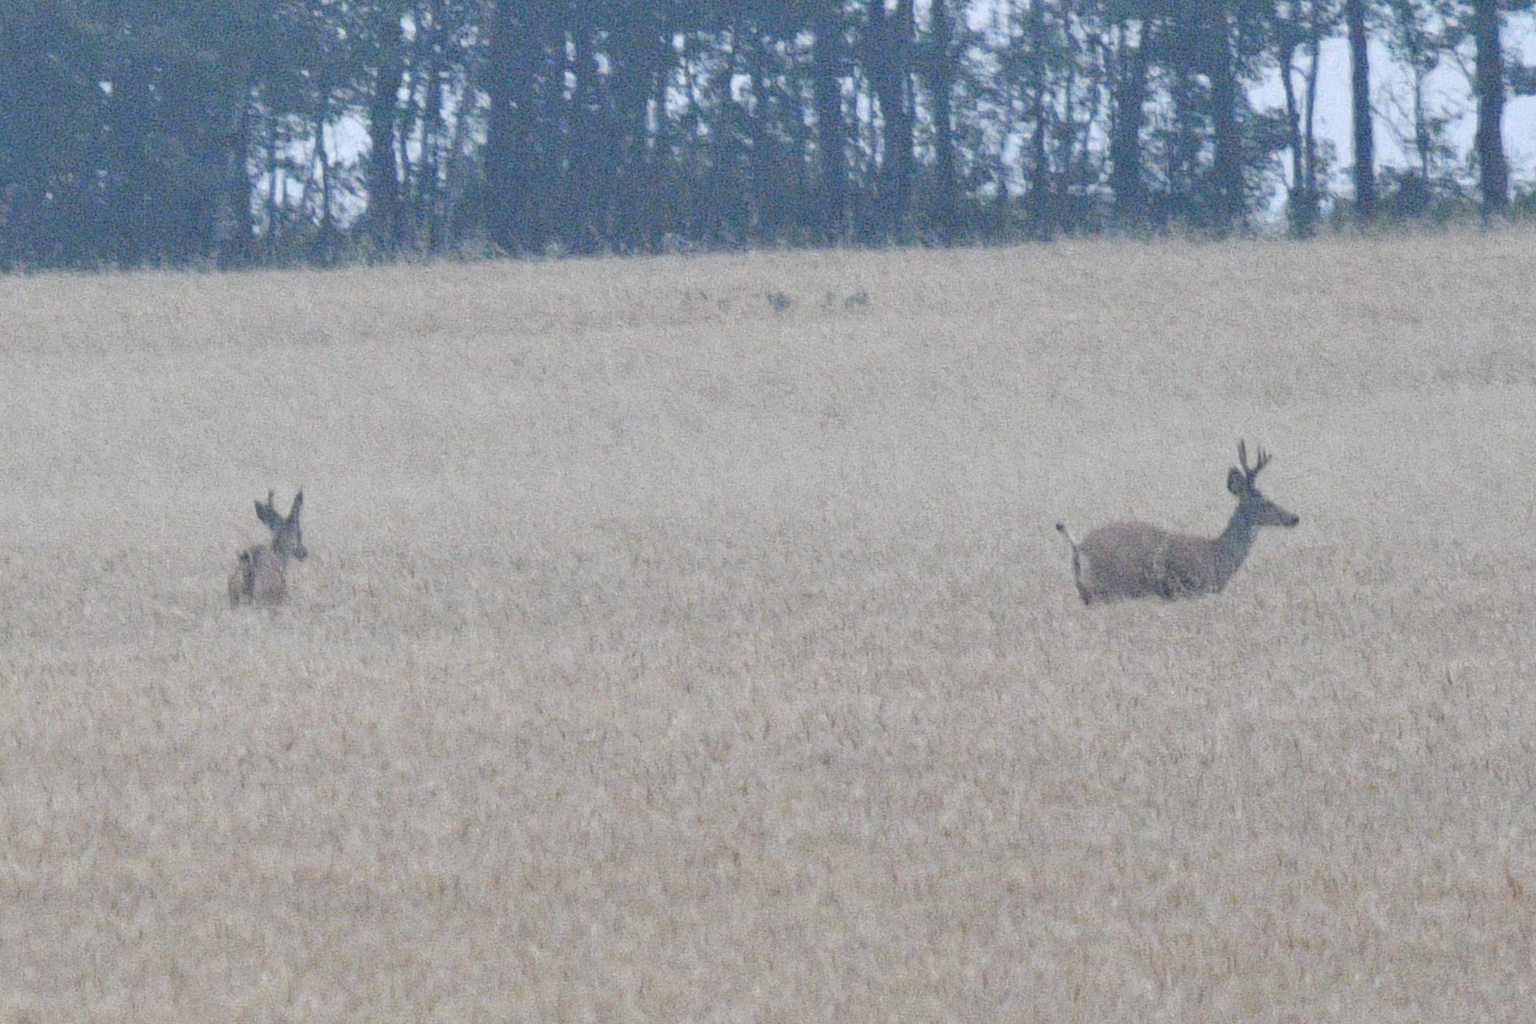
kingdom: Animalia
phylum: Chordata
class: Mammalia
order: Artiodactyla
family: Cervidae
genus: Odocoileus
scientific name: Odocoileus hemionus
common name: Mule deer
